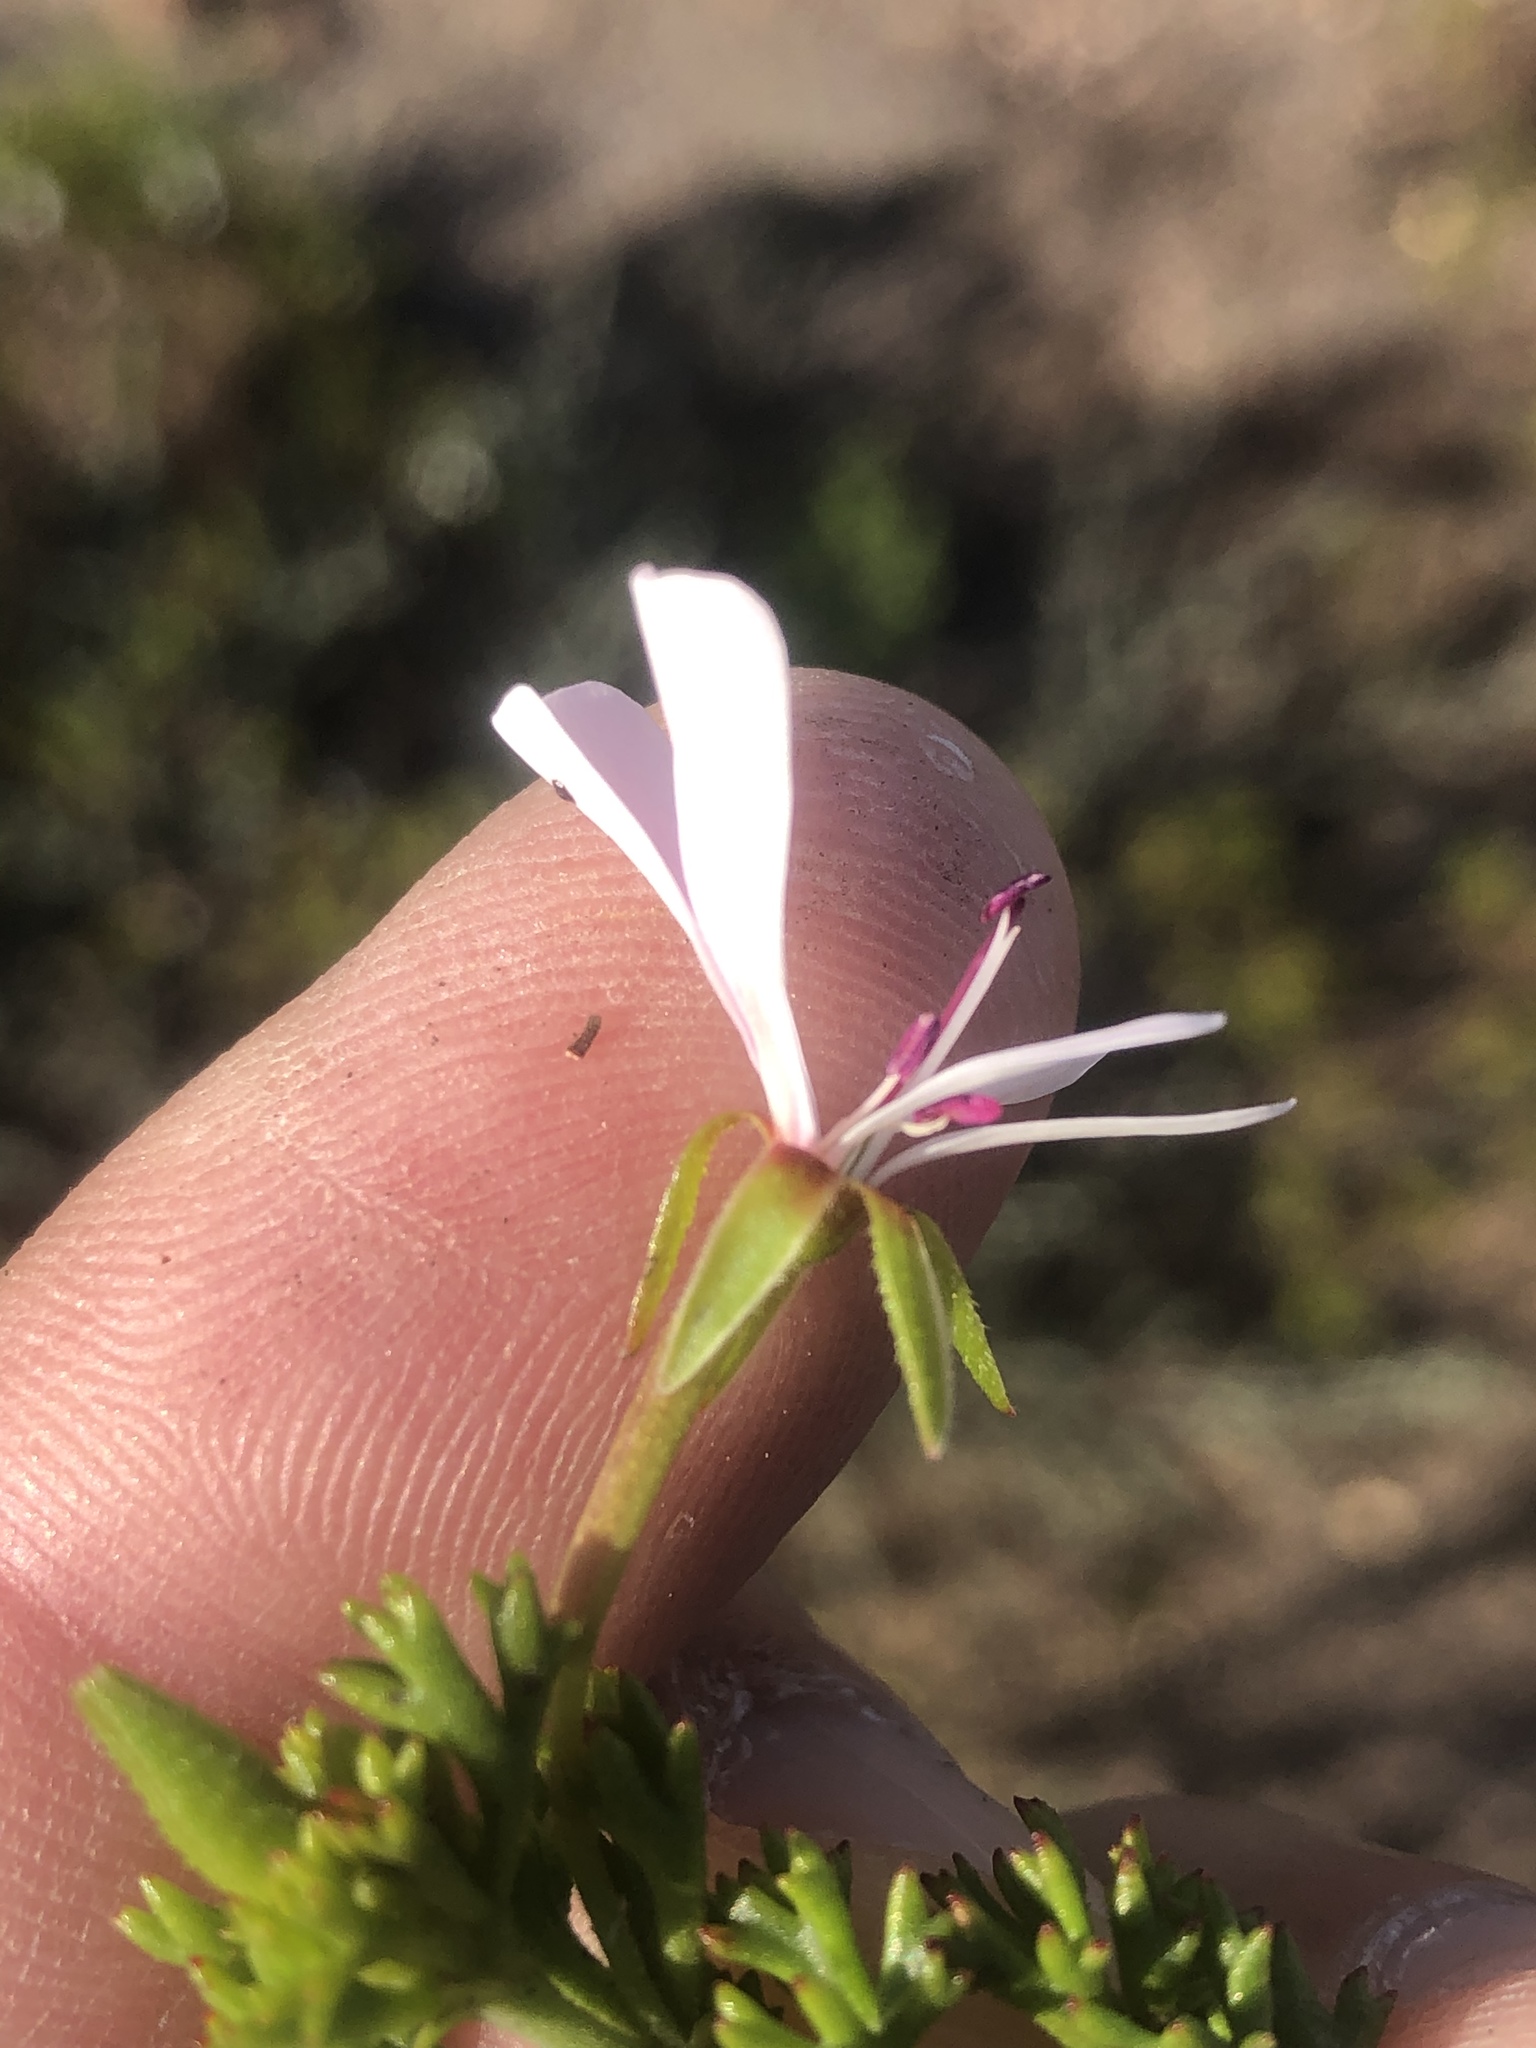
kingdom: Plantae
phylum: Tracheophyta
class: Magnoliopsida
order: Geraniales
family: Geraniaceae
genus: Pelargonium
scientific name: Pelargonium fruticosum
